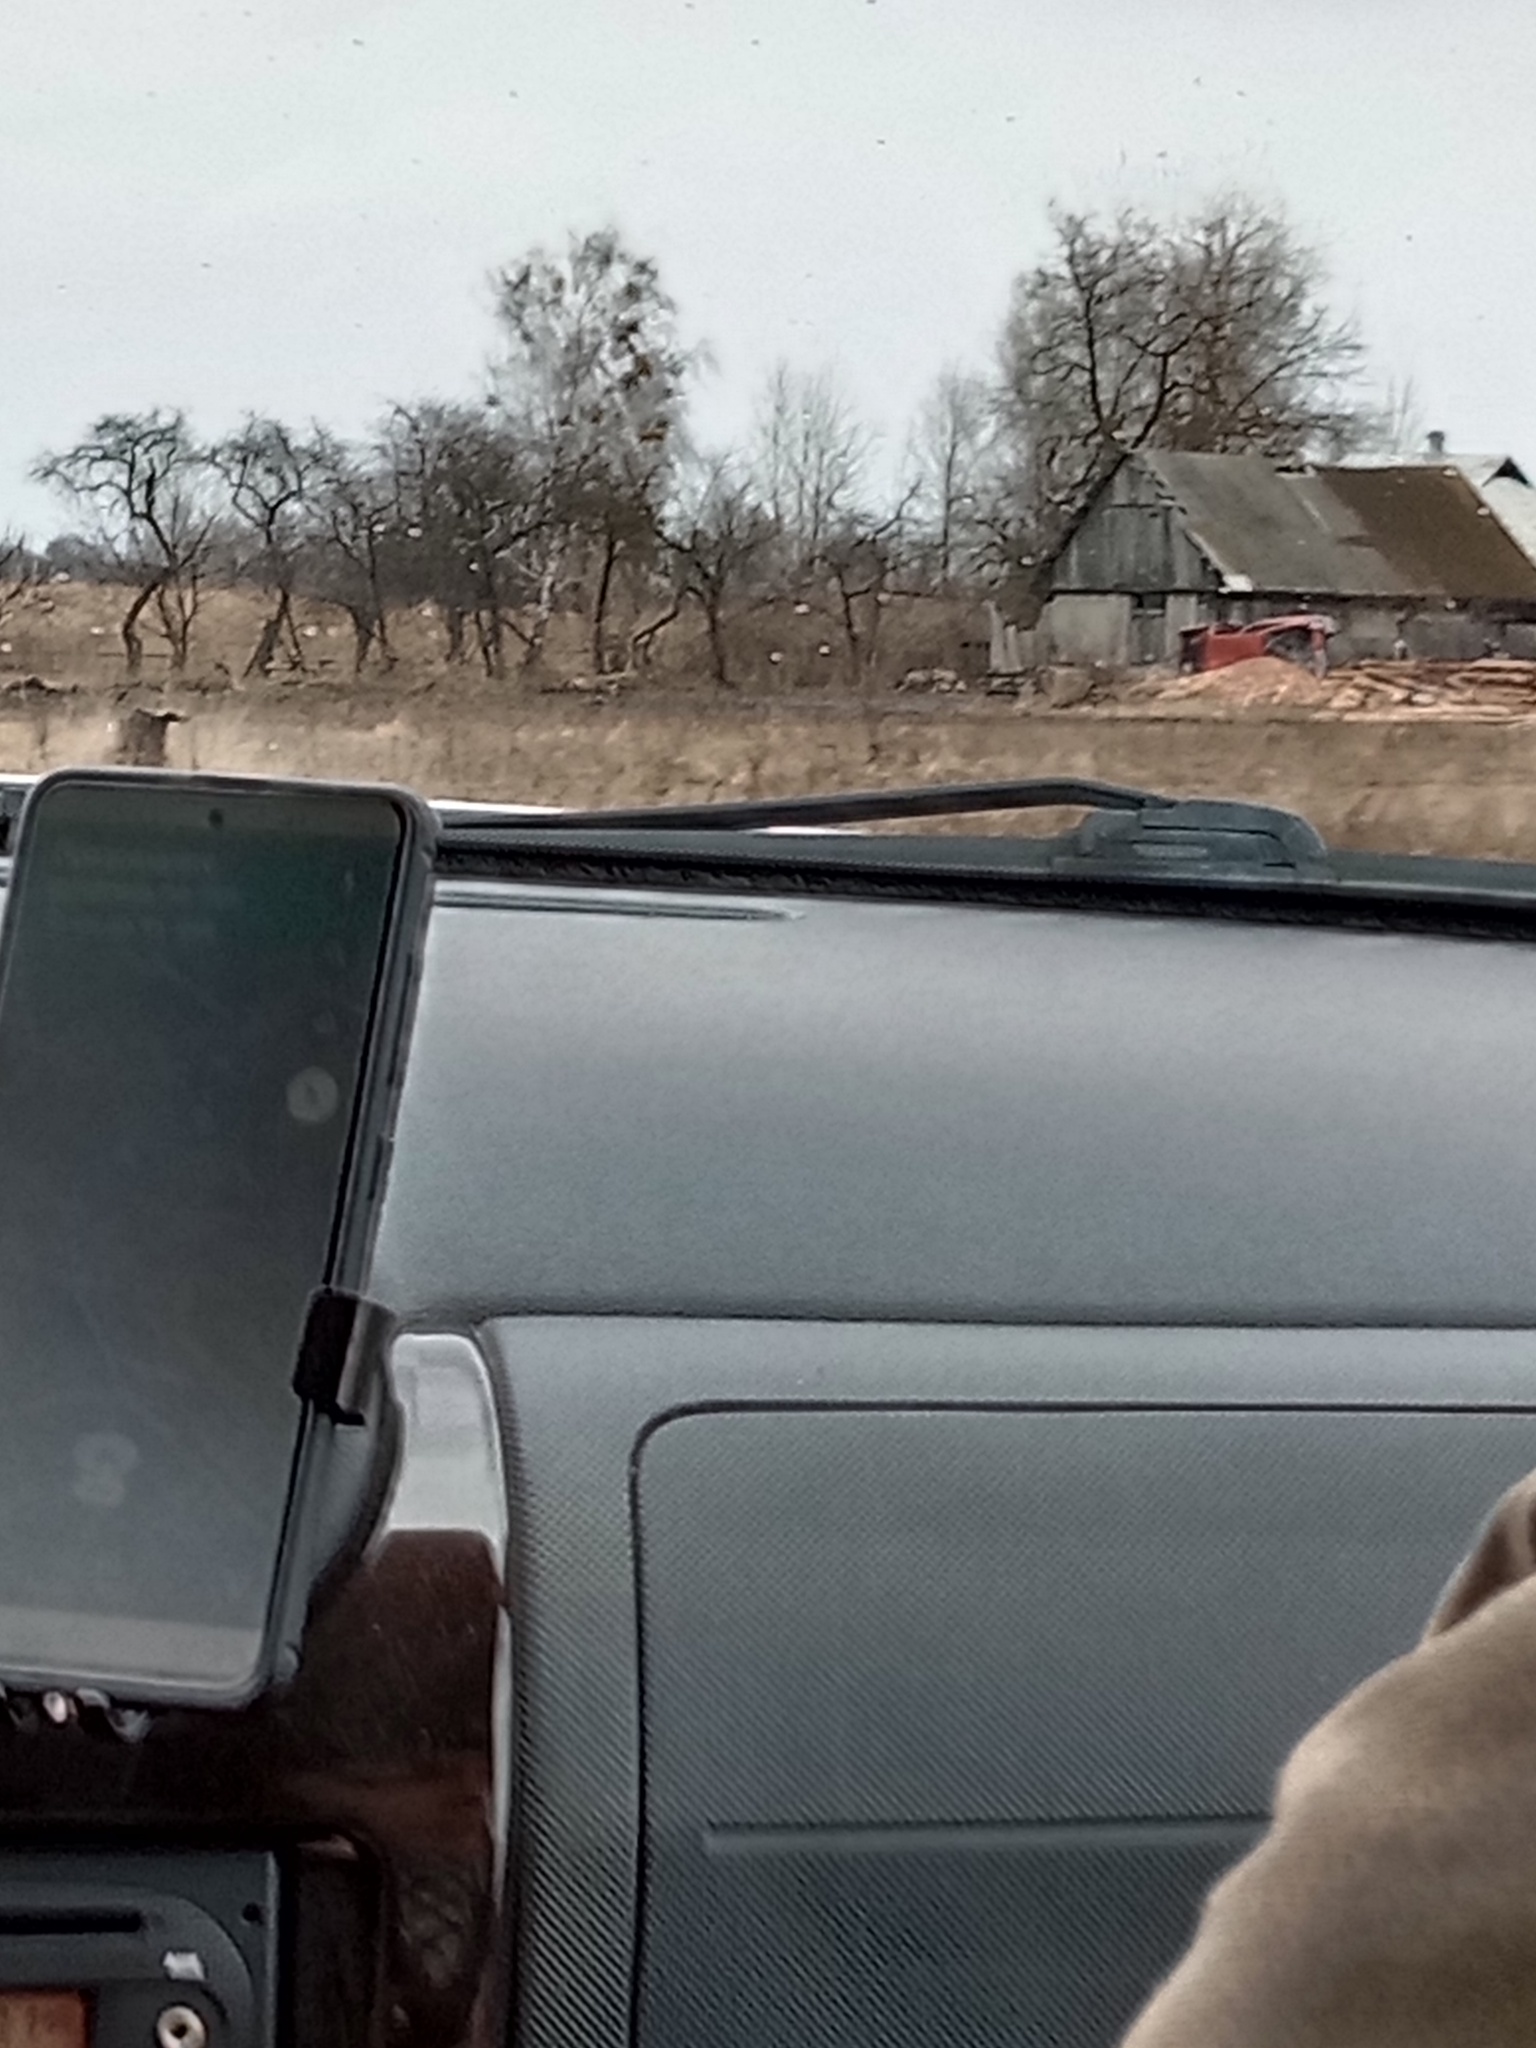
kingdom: Plantae
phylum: Tracheophyta
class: Magnoliopsida
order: Santalales
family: Viscaceae
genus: Viscum
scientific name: Viscum album
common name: Mistletoe
